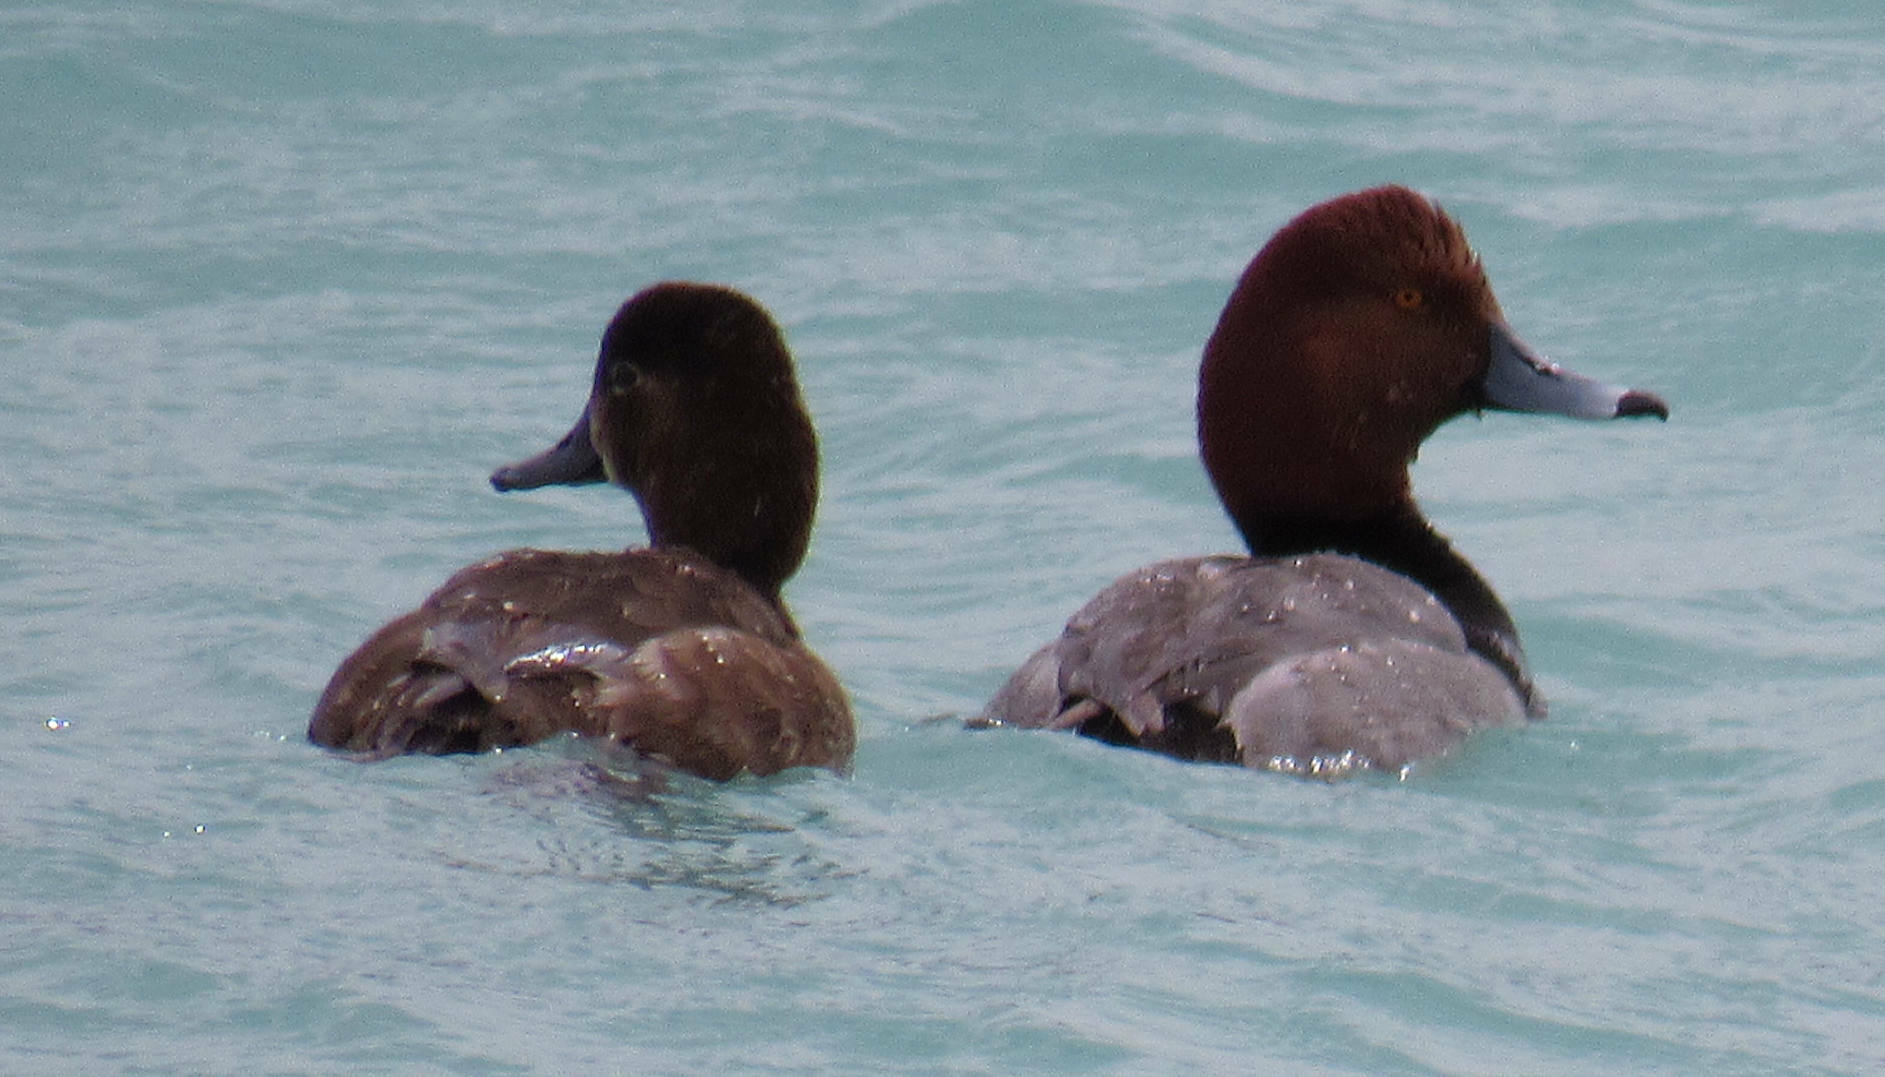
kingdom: Animalia
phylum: Chordata
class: Aves
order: Anseriformes
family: Anatidae
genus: Aythya
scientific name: Aythya americana
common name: Redhead
